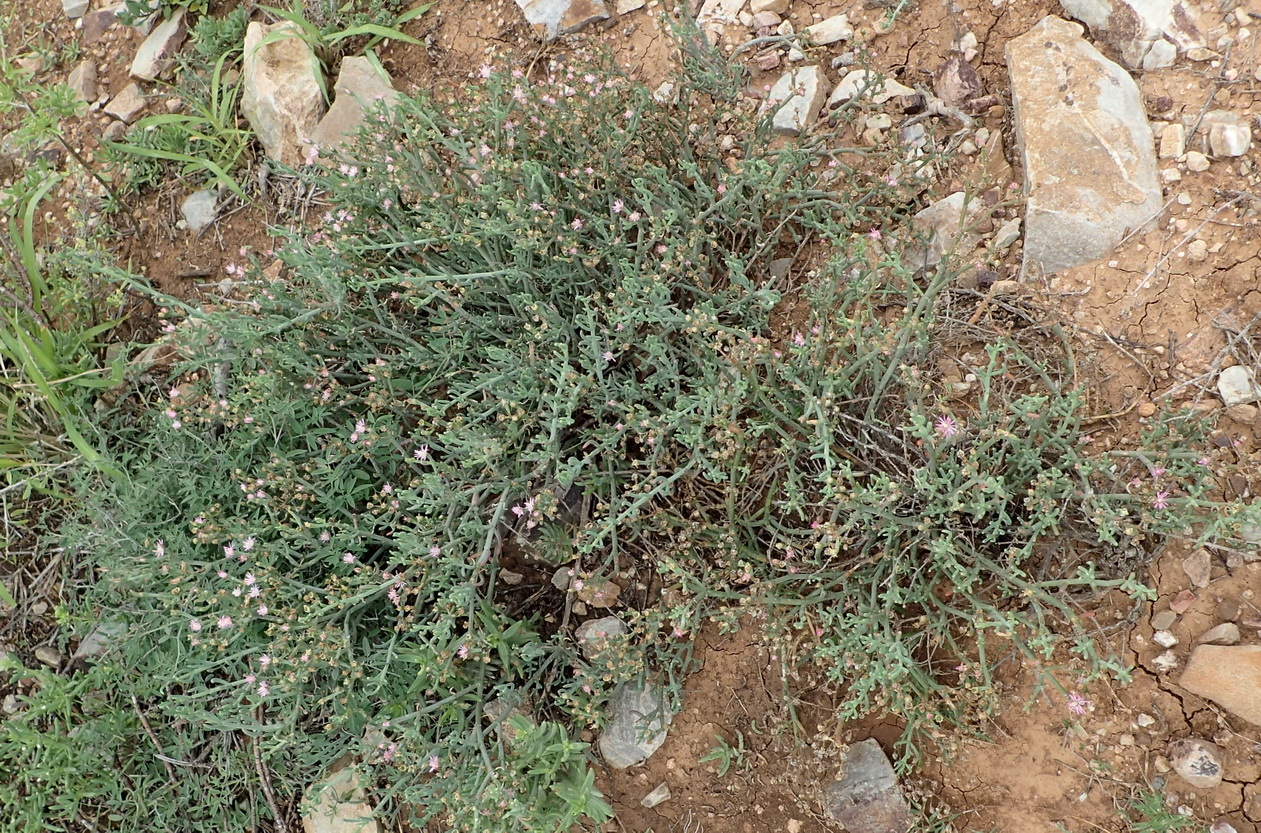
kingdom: Plantae
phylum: Tracheophyta
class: Magnoliopsida
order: Caryophyllales
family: Aizoaceae
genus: Mesembryanthemum
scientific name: Mesembryanthemum junceum
